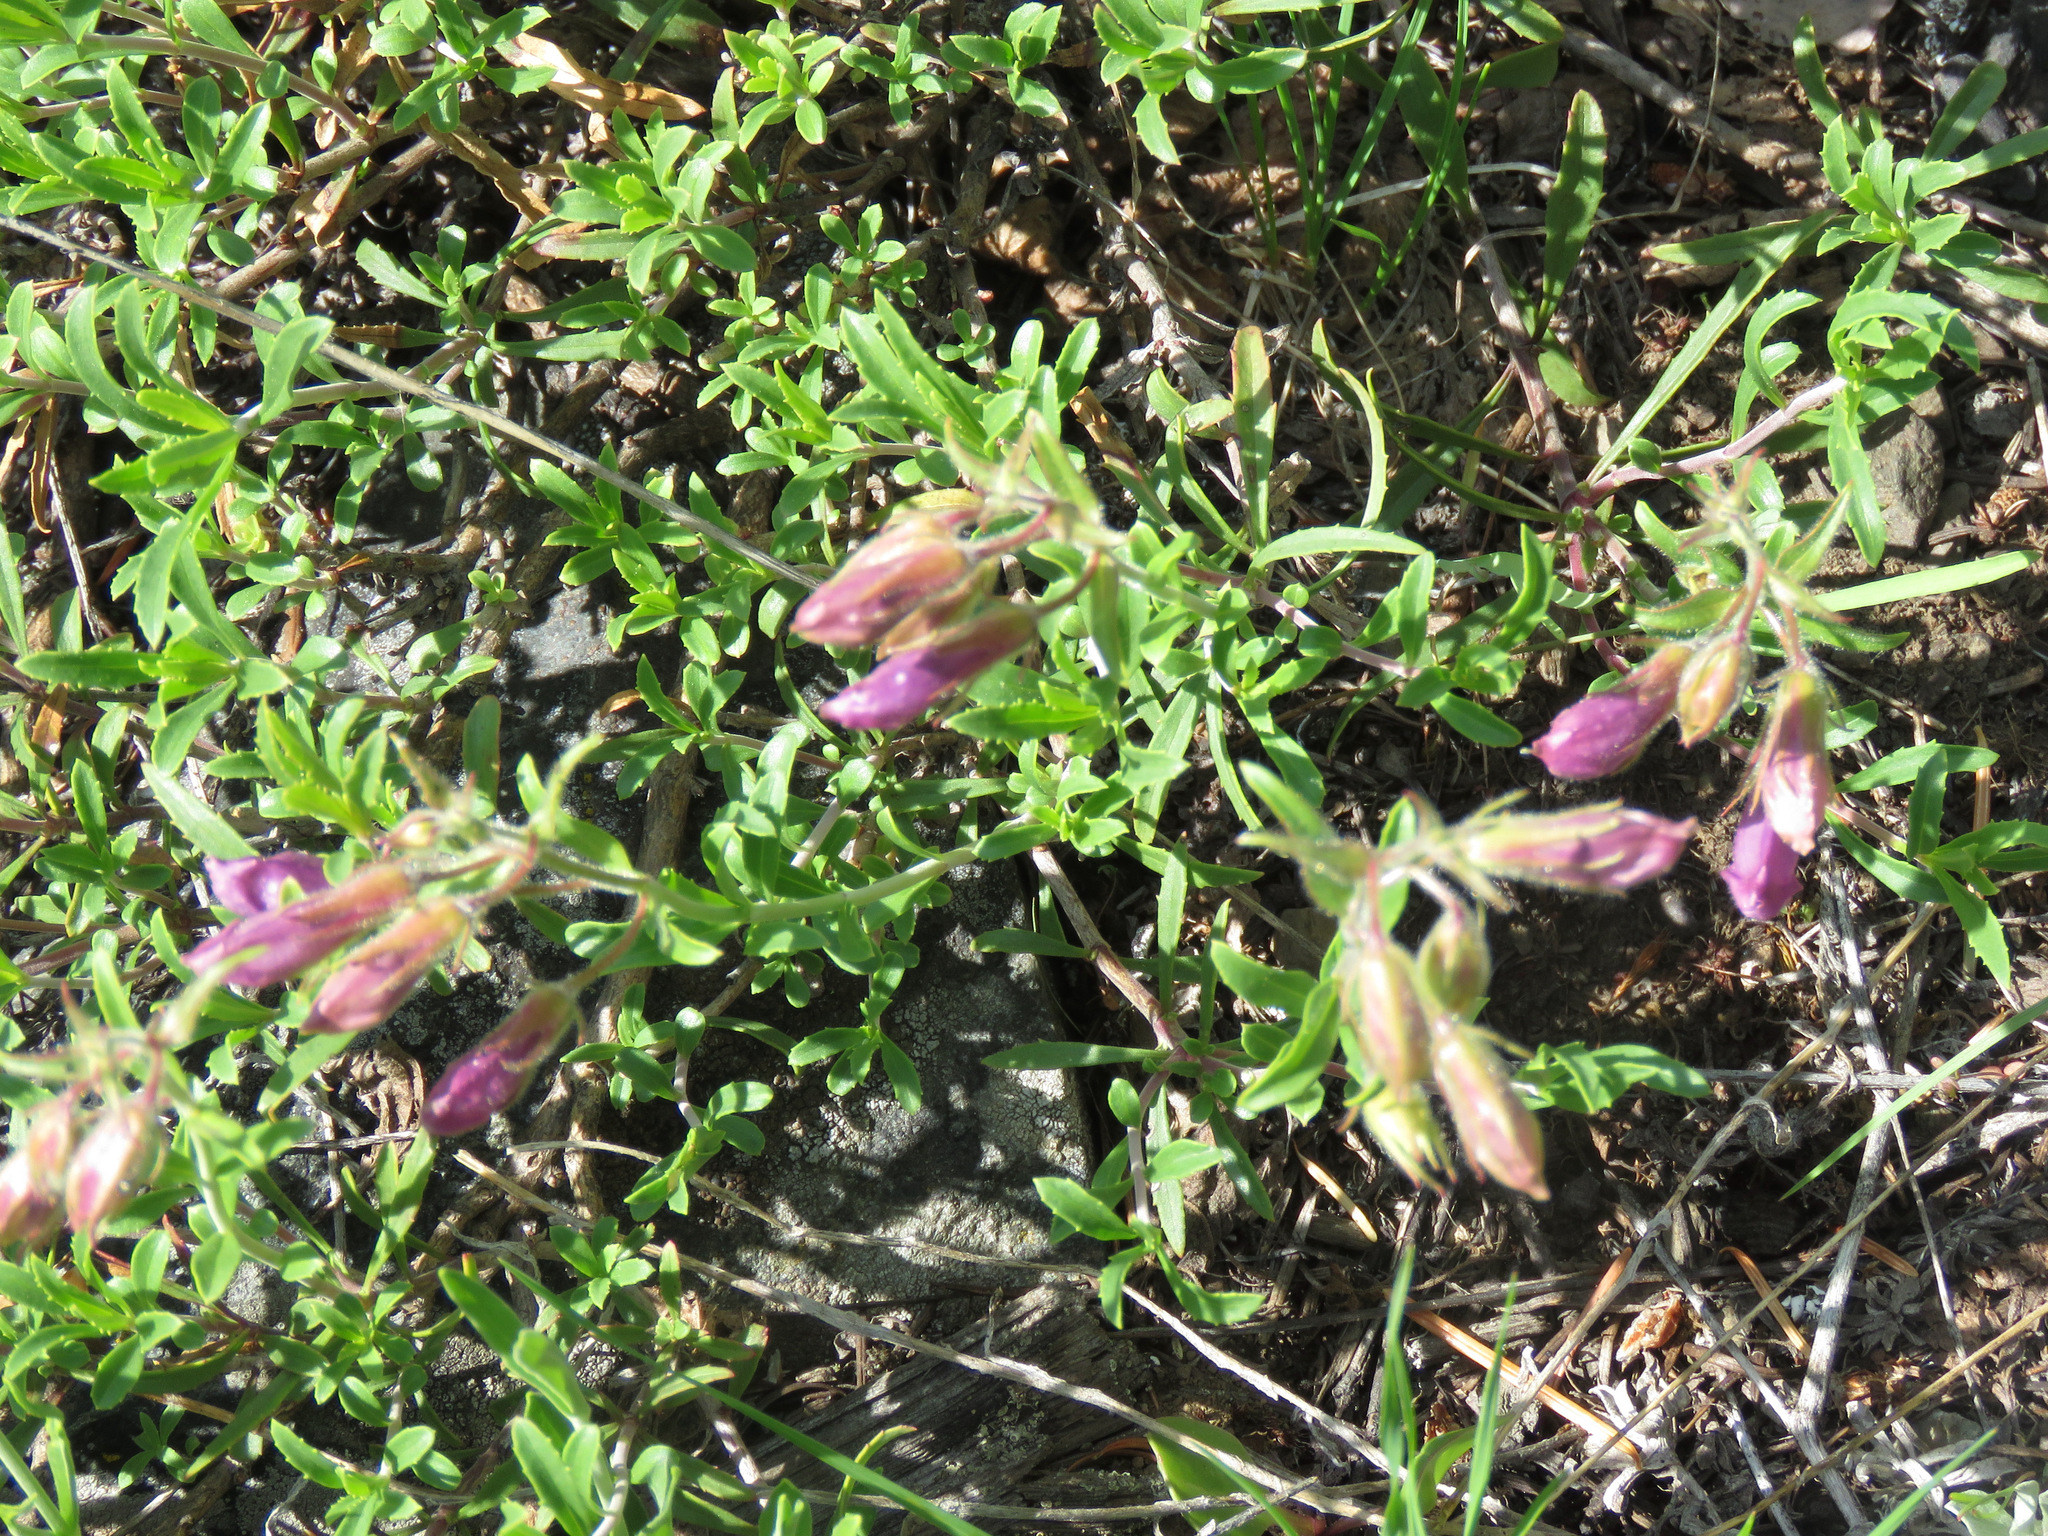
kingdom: Plantae
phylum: Tracheophyta
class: Magnoliopsida
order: Lamiales
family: Plantaginaceae
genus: Penstemon
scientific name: Penstemon fruticosus
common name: Bush penstemon
